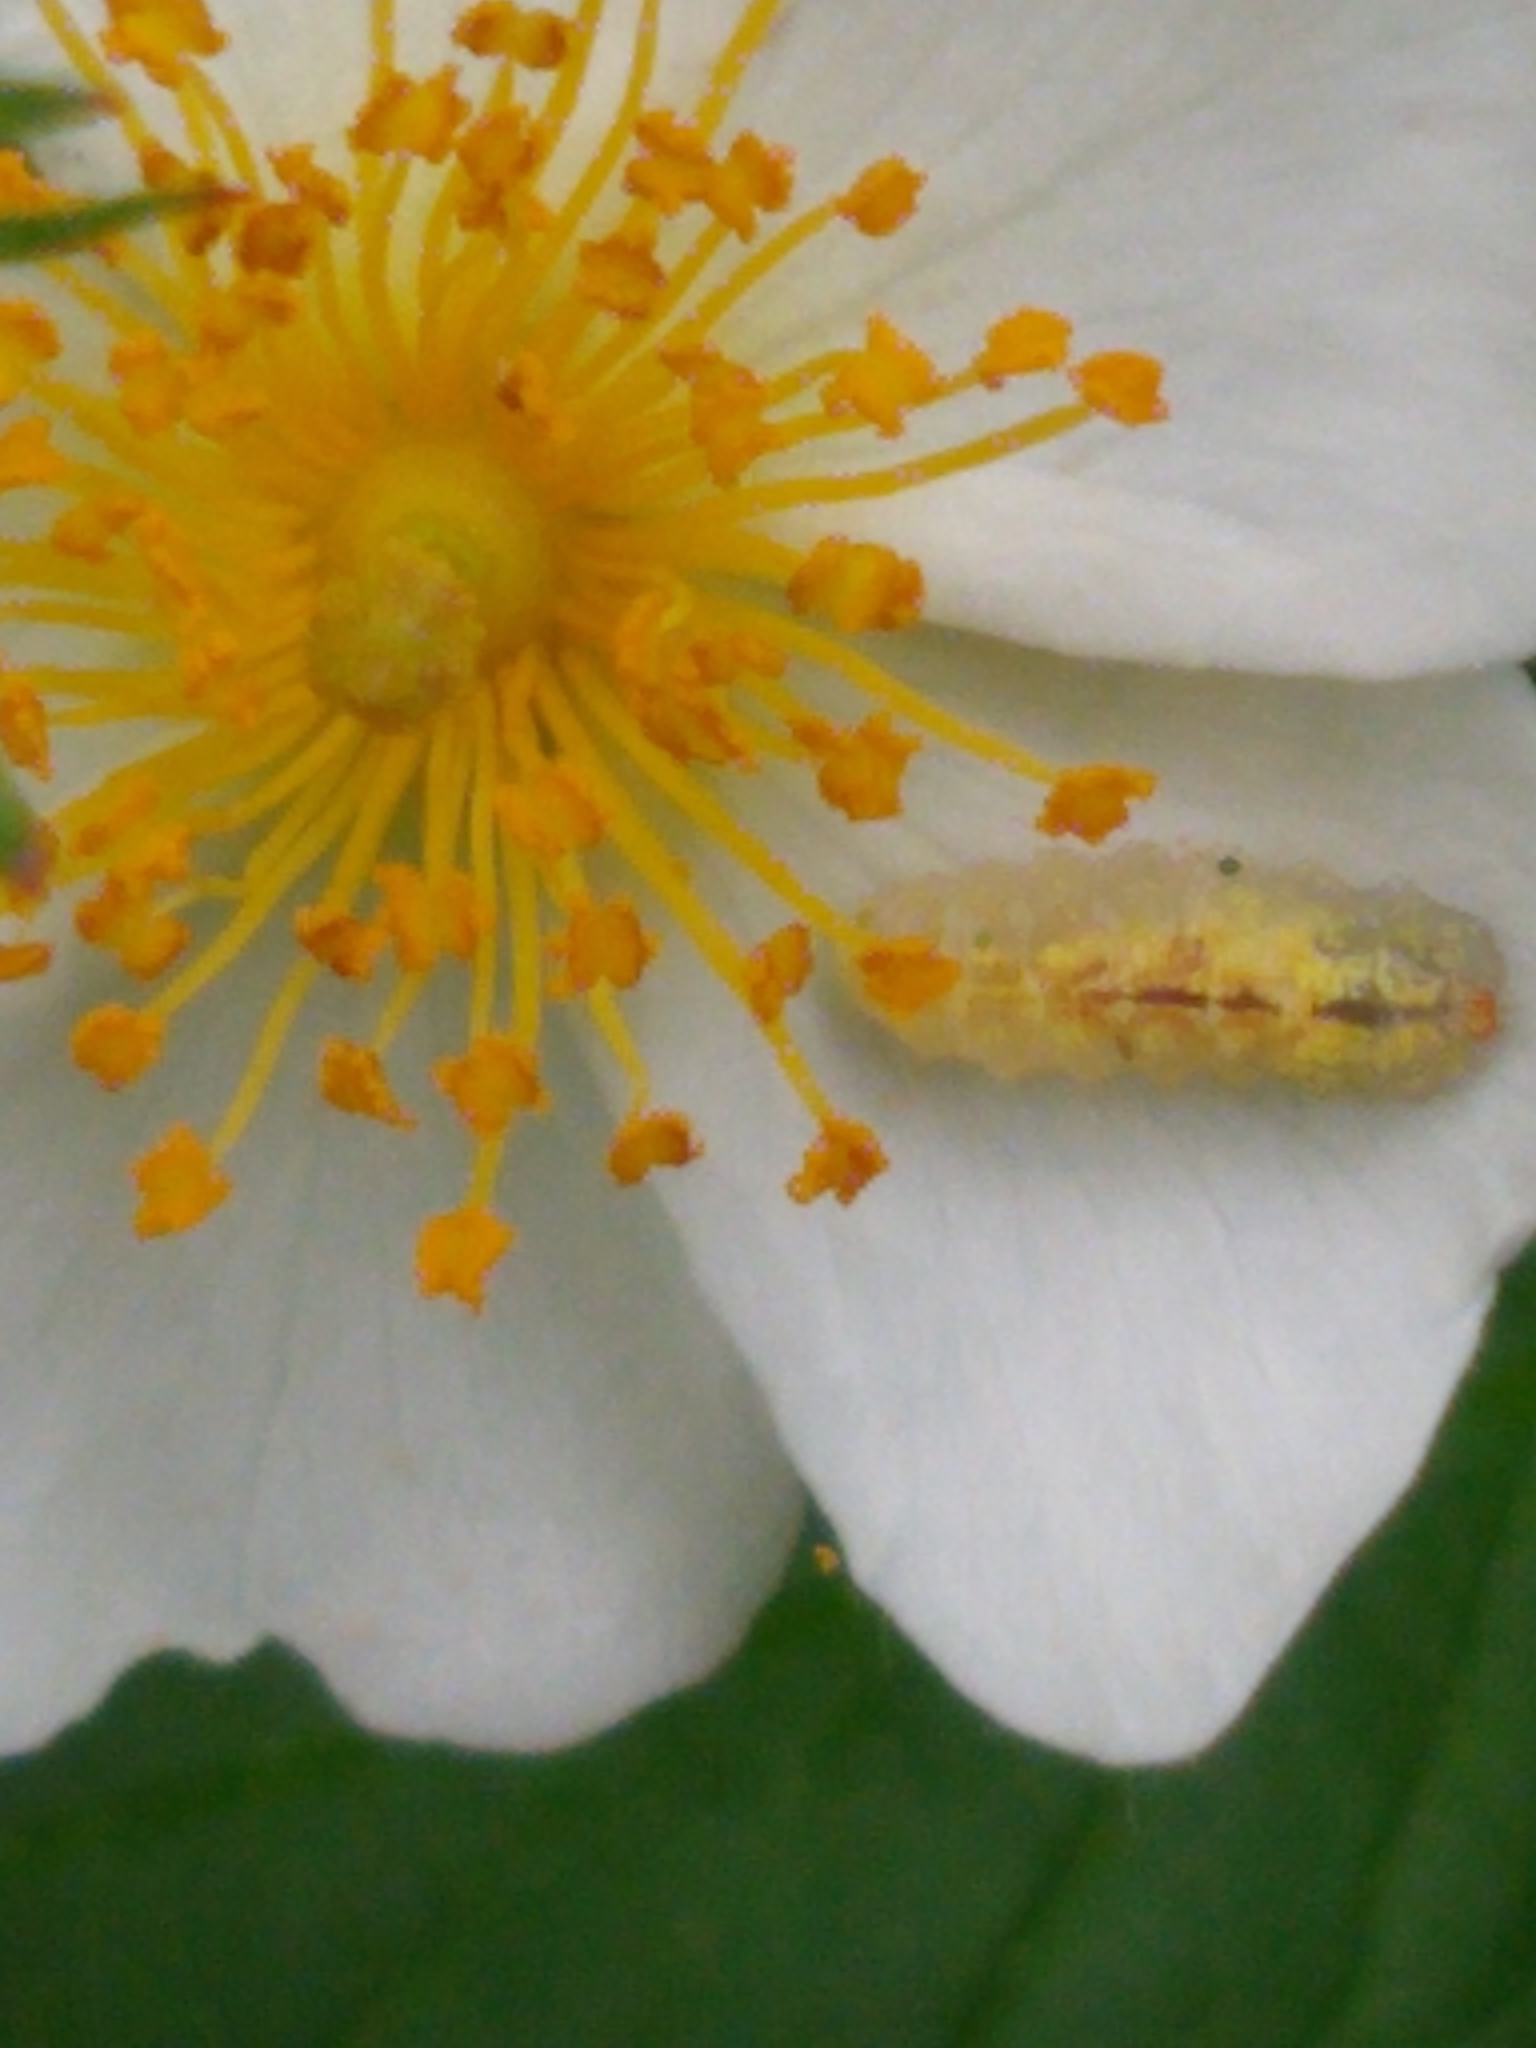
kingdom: Animalia
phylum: Arthropoda
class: Insecta
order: Diptera
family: Syrphidae
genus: Syrphus
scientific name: Syrphus
